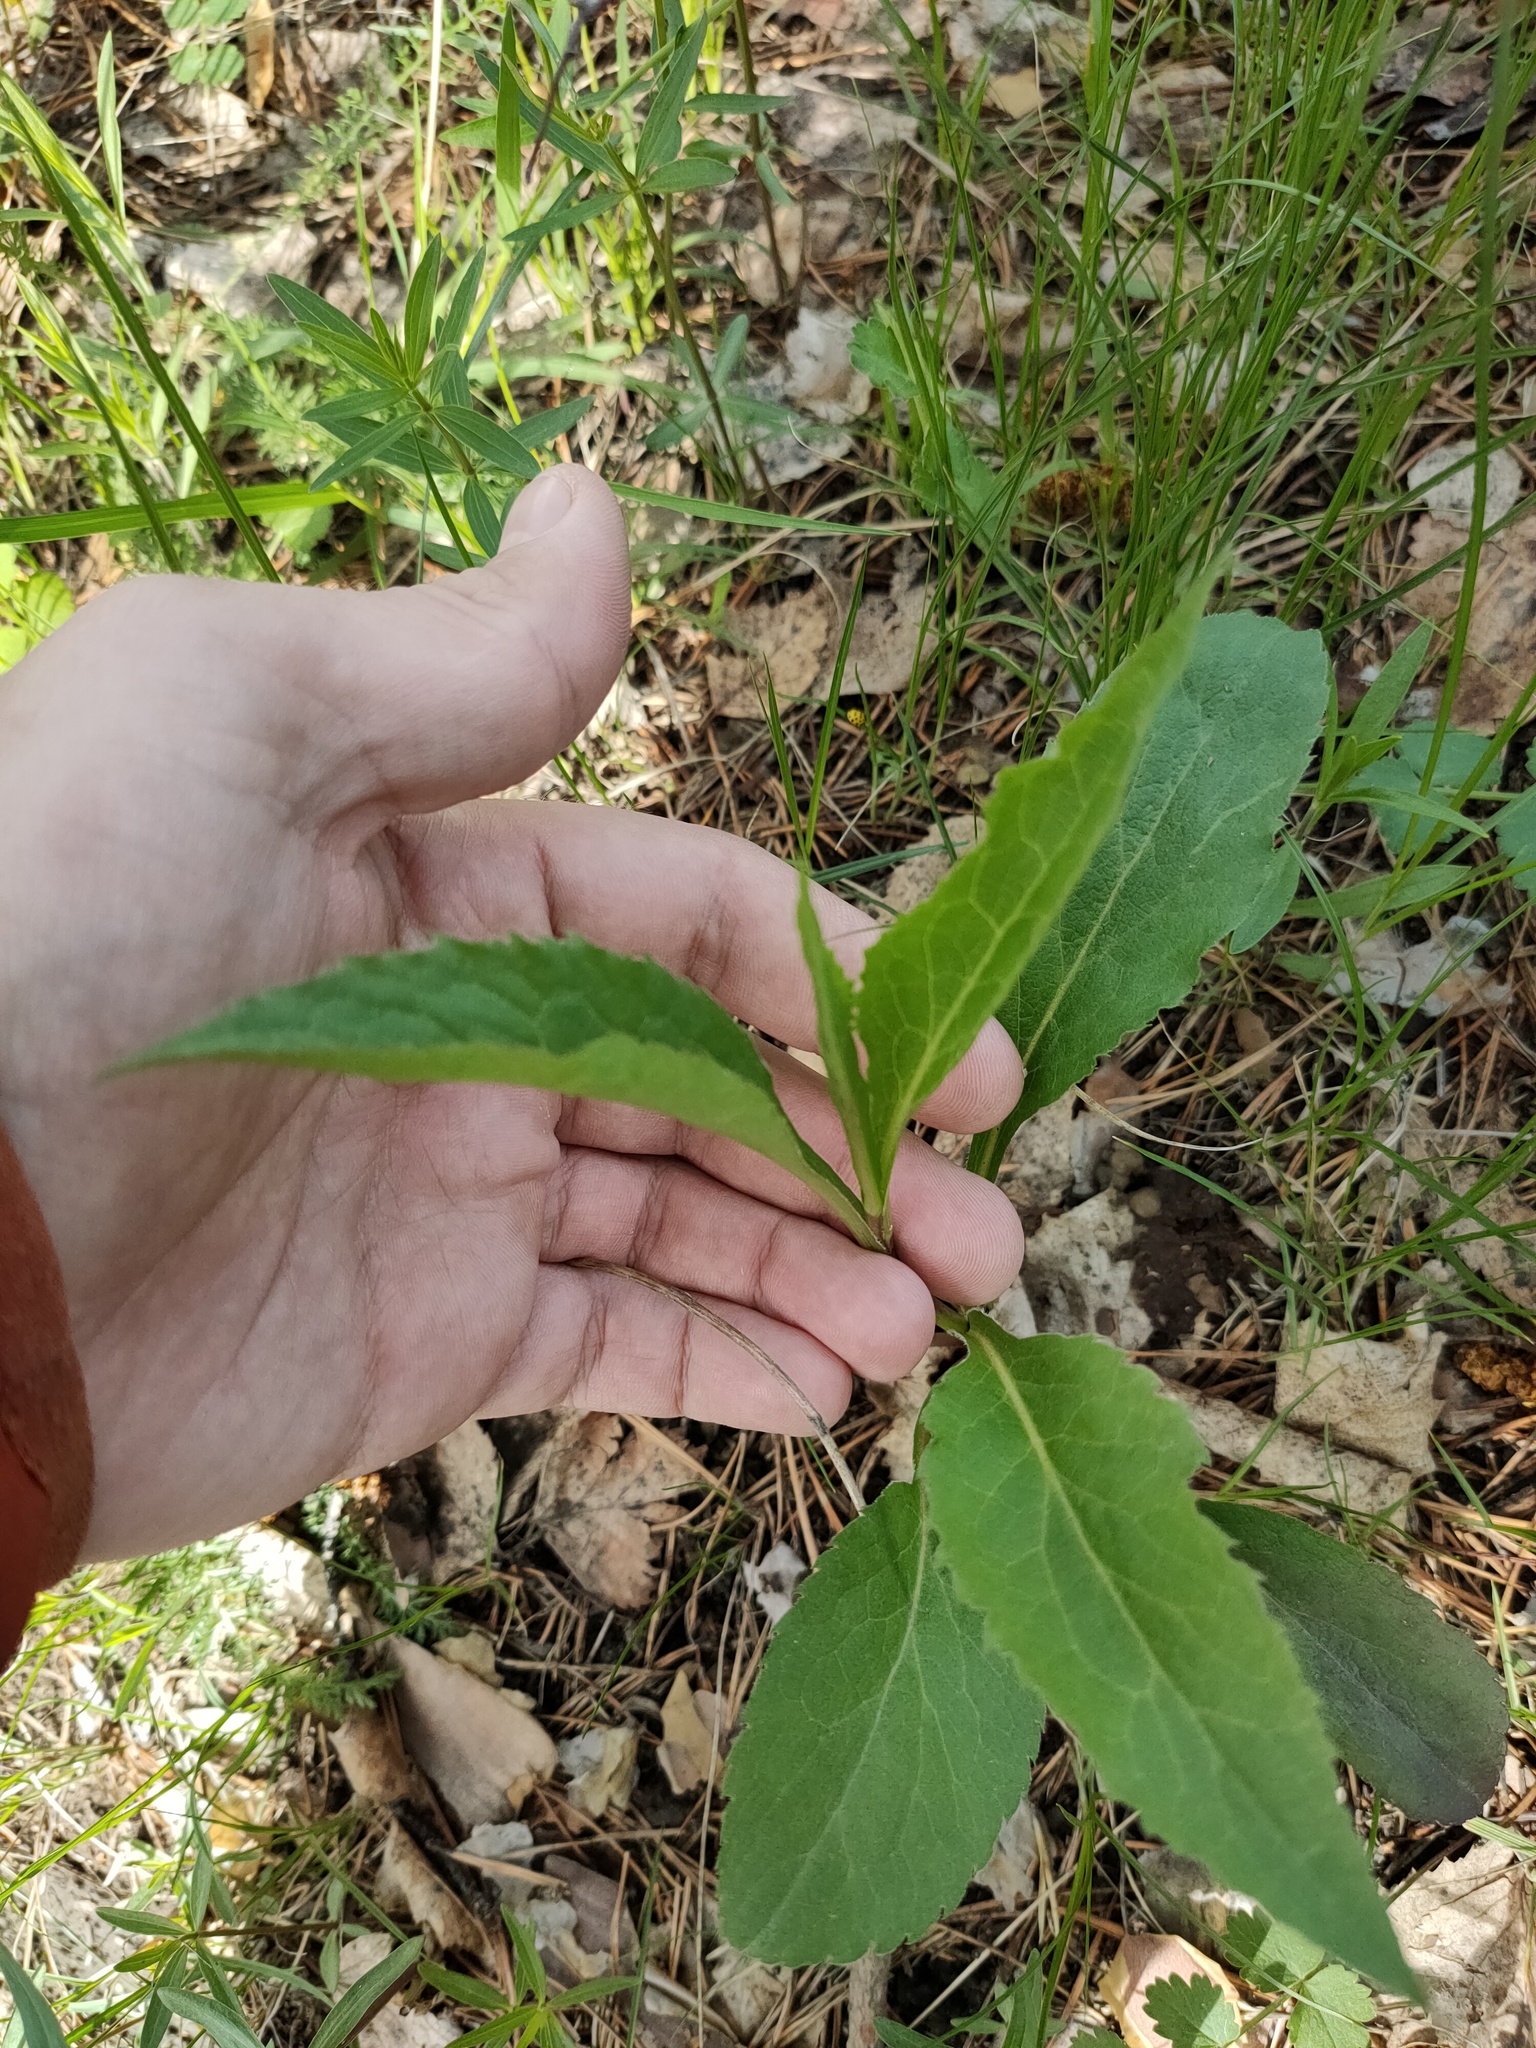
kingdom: Plantae
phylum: Tracheophyta
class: Magnoliopsida
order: Asterales
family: Asteraceae
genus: Solidago
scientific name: Solidago virgaurea
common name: Goldenrod
